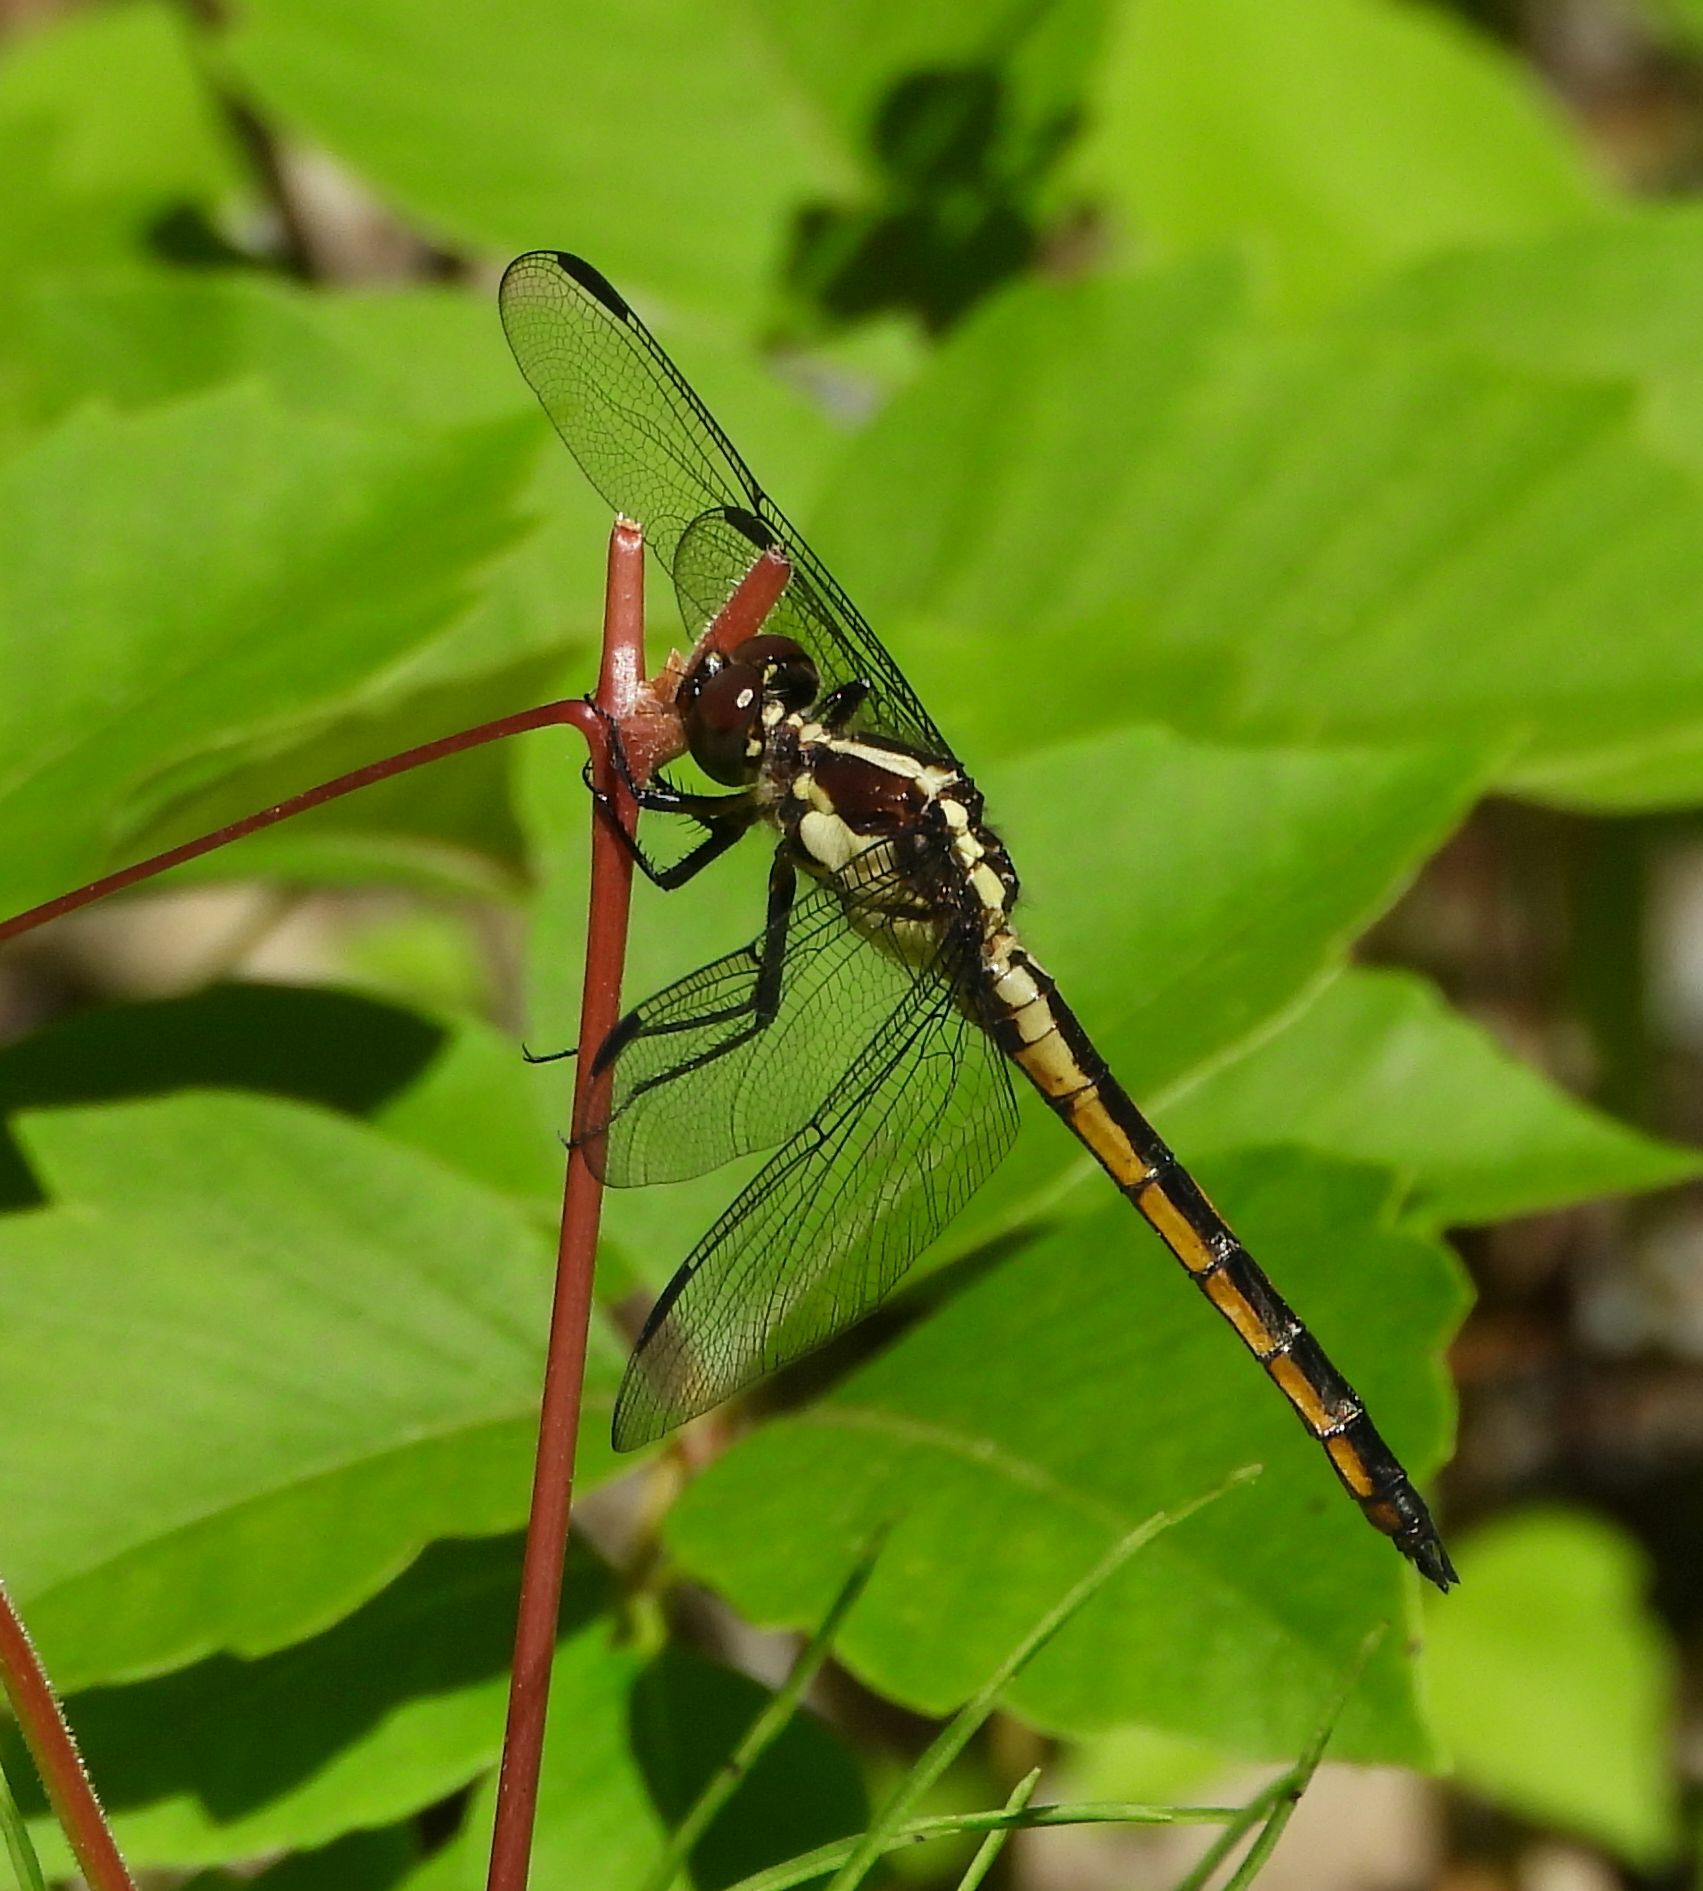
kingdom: Animalia
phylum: Arthropoda
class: Insecta
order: Odonata
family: Libellulidae
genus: Libellula
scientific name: Libellula incesta
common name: Slaty skimmer
